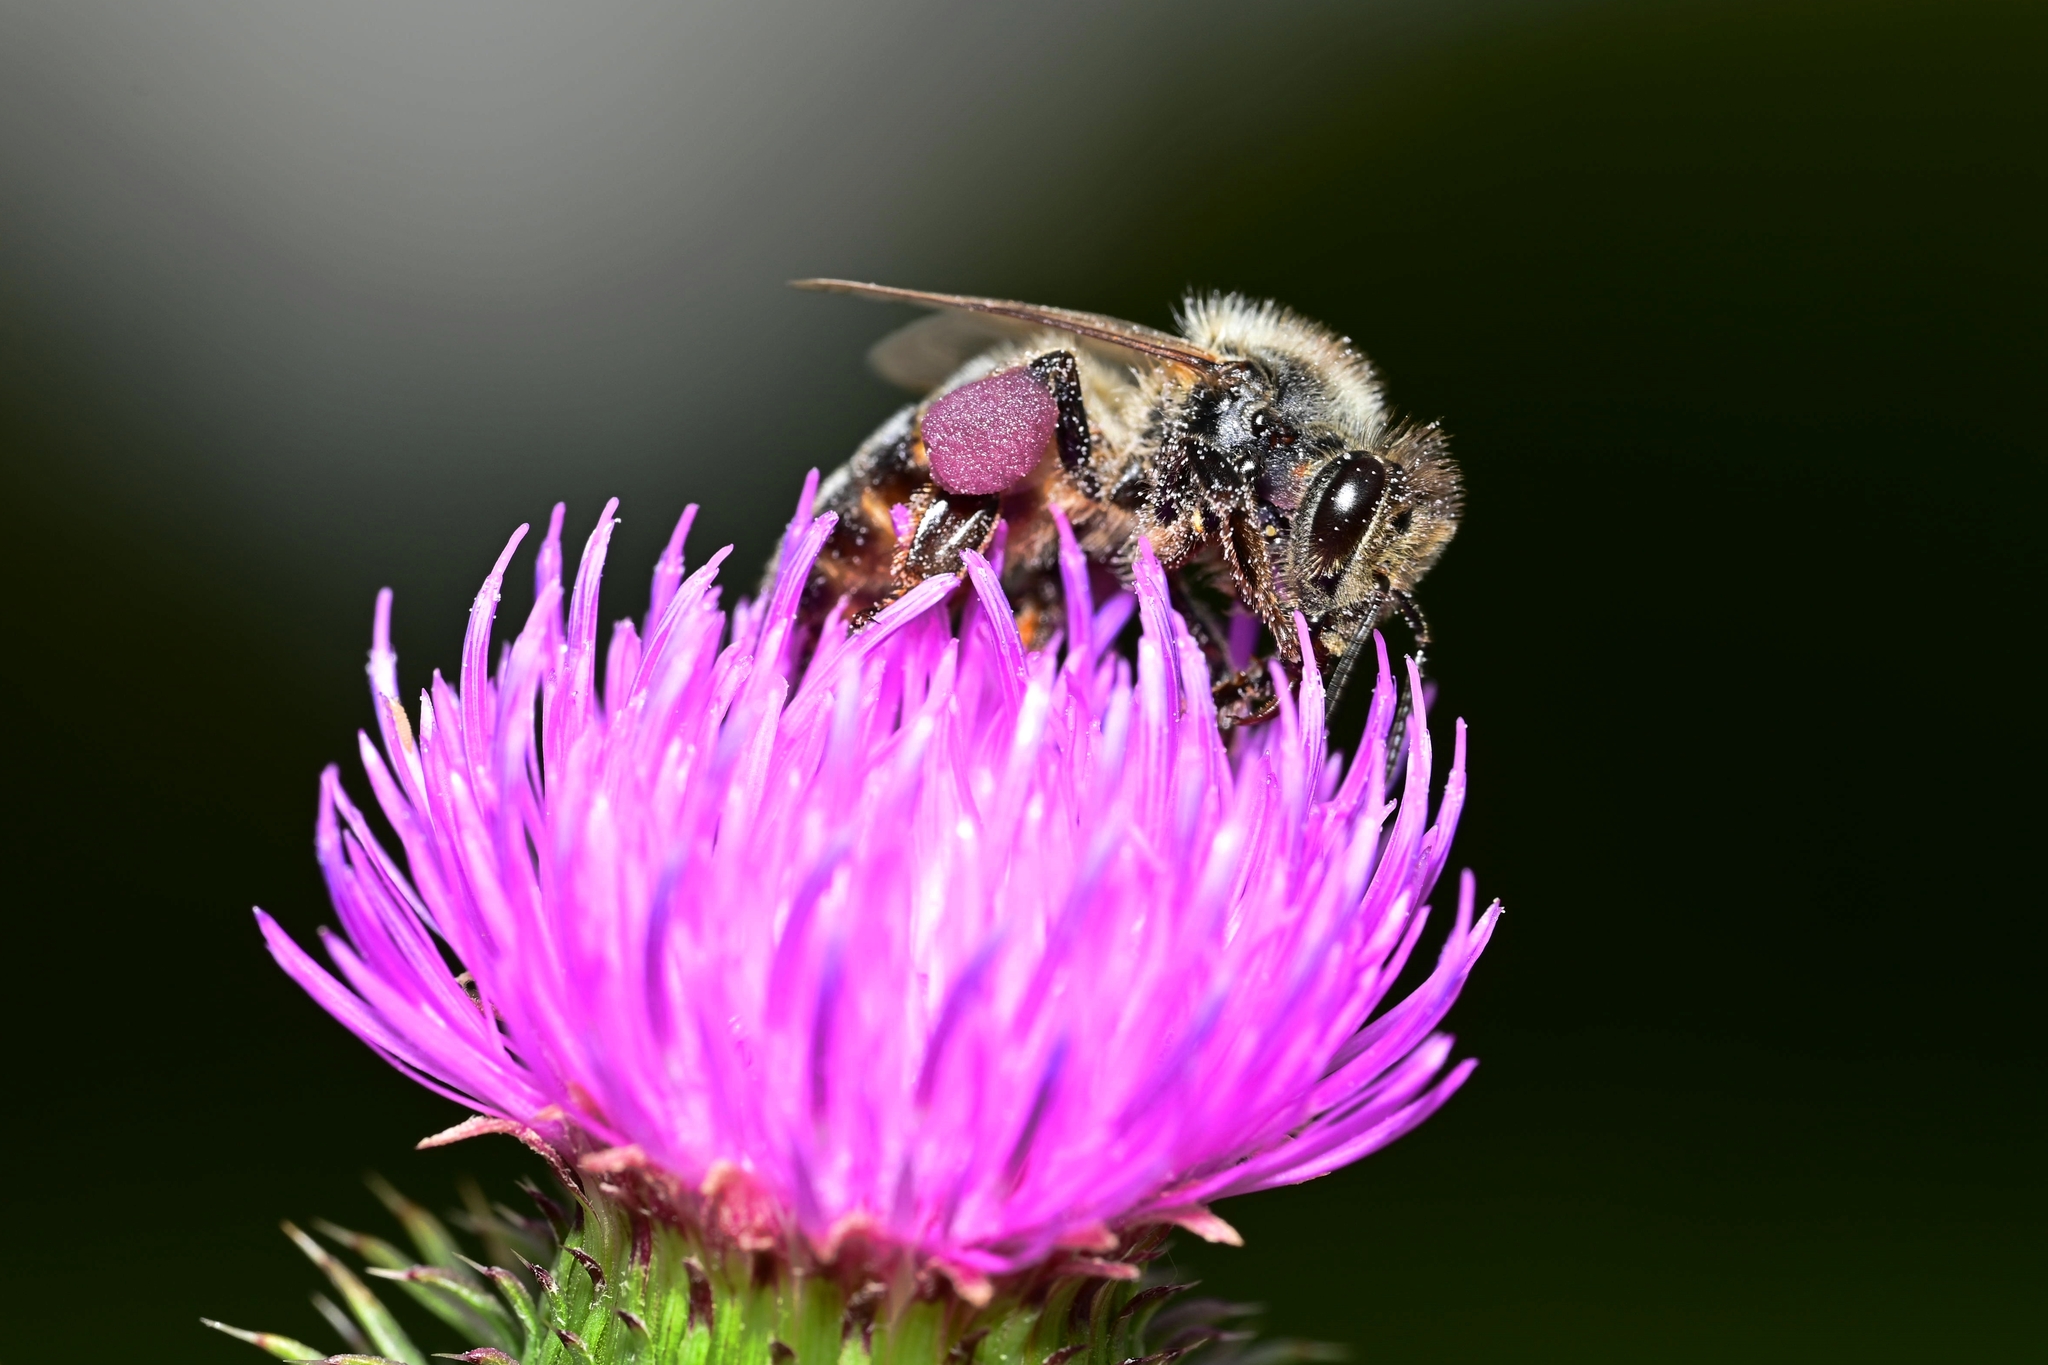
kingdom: Animalia
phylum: Arthropoda
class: Insecta
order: Hymenoptera
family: Apidae
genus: Apis
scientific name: Apis mellifera
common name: Honey bee
